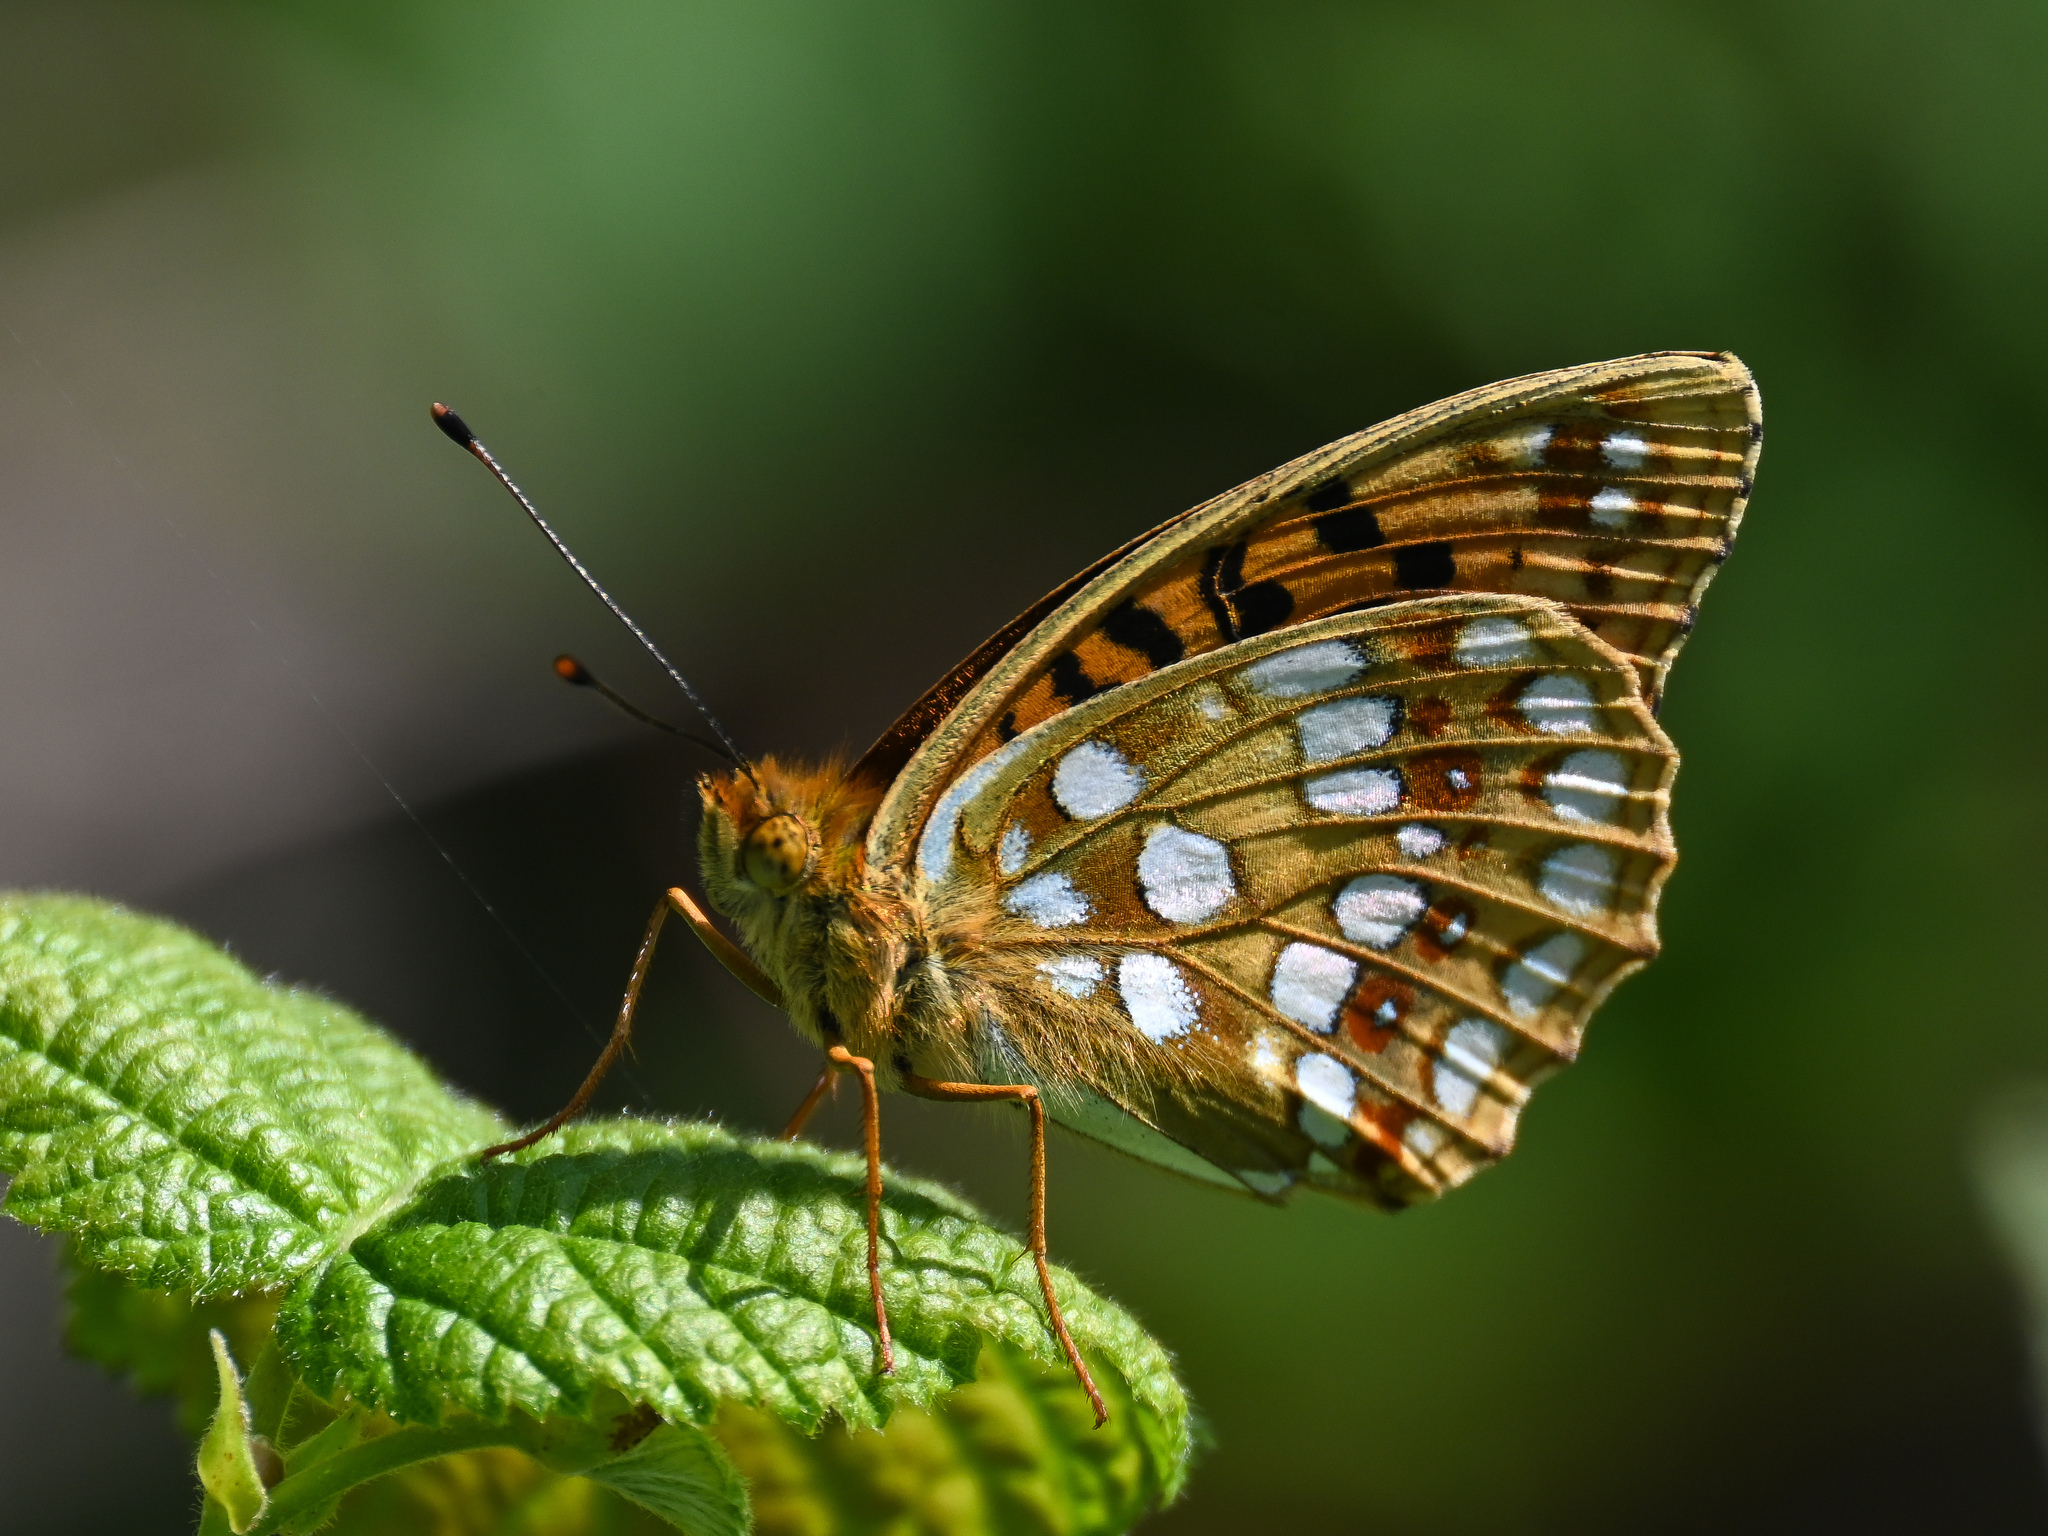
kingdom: Animalia
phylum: Arthropoda
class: Insecta
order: Lepidoptera
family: Nymphalidae
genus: Fabriciana
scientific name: Fabriciana adippe
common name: High brown fritillary
